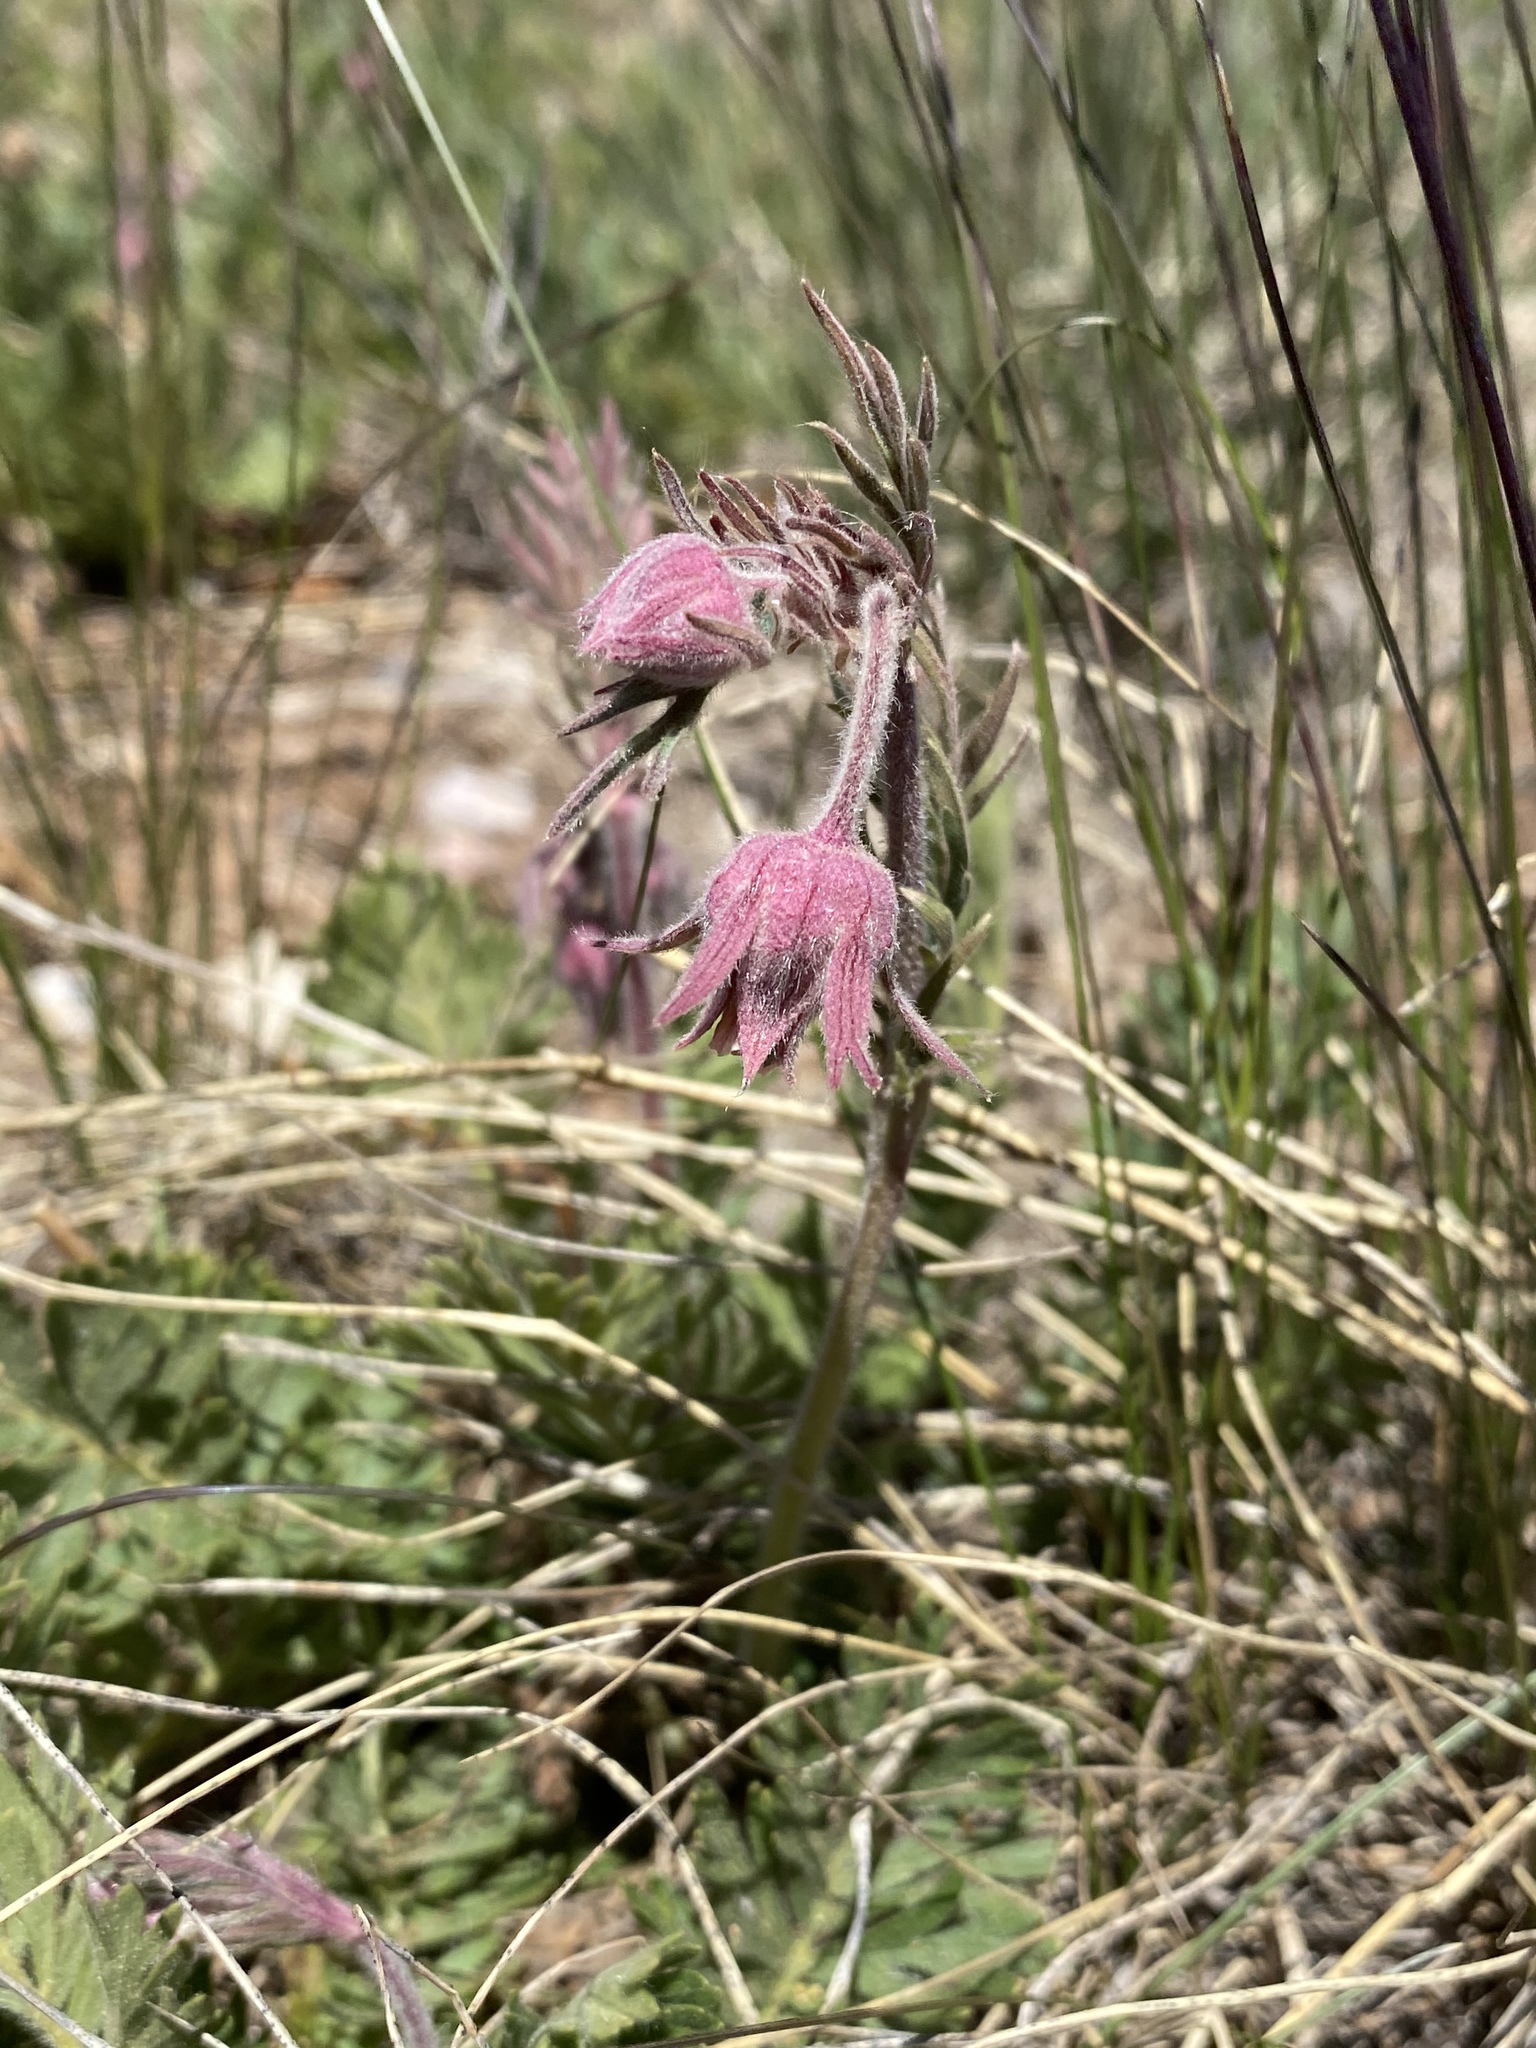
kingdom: Plantae
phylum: Tracheophyta
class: Magnoliopsida
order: Rosales
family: Rosaceae
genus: Geum
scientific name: Geum triflorum
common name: Old man's whiskers
